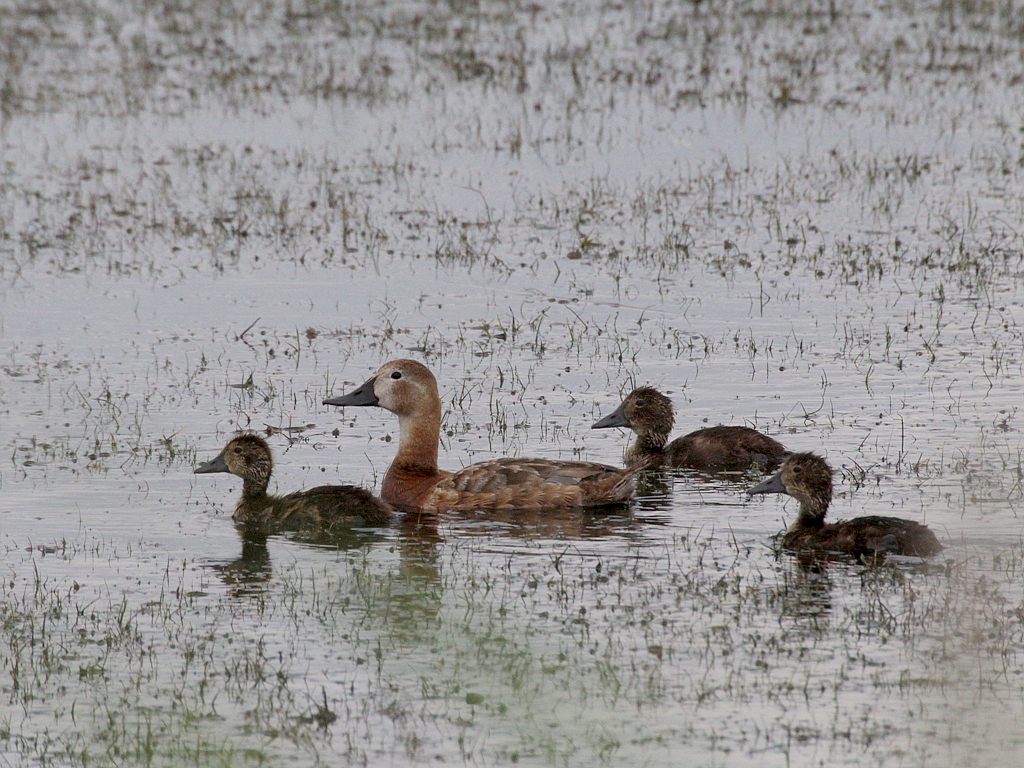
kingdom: Animalia
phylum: Chordata
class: Aves
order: Anseriformes
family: Anatidae
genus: Aythya
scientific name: Aythya ferina
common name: Common pochard
